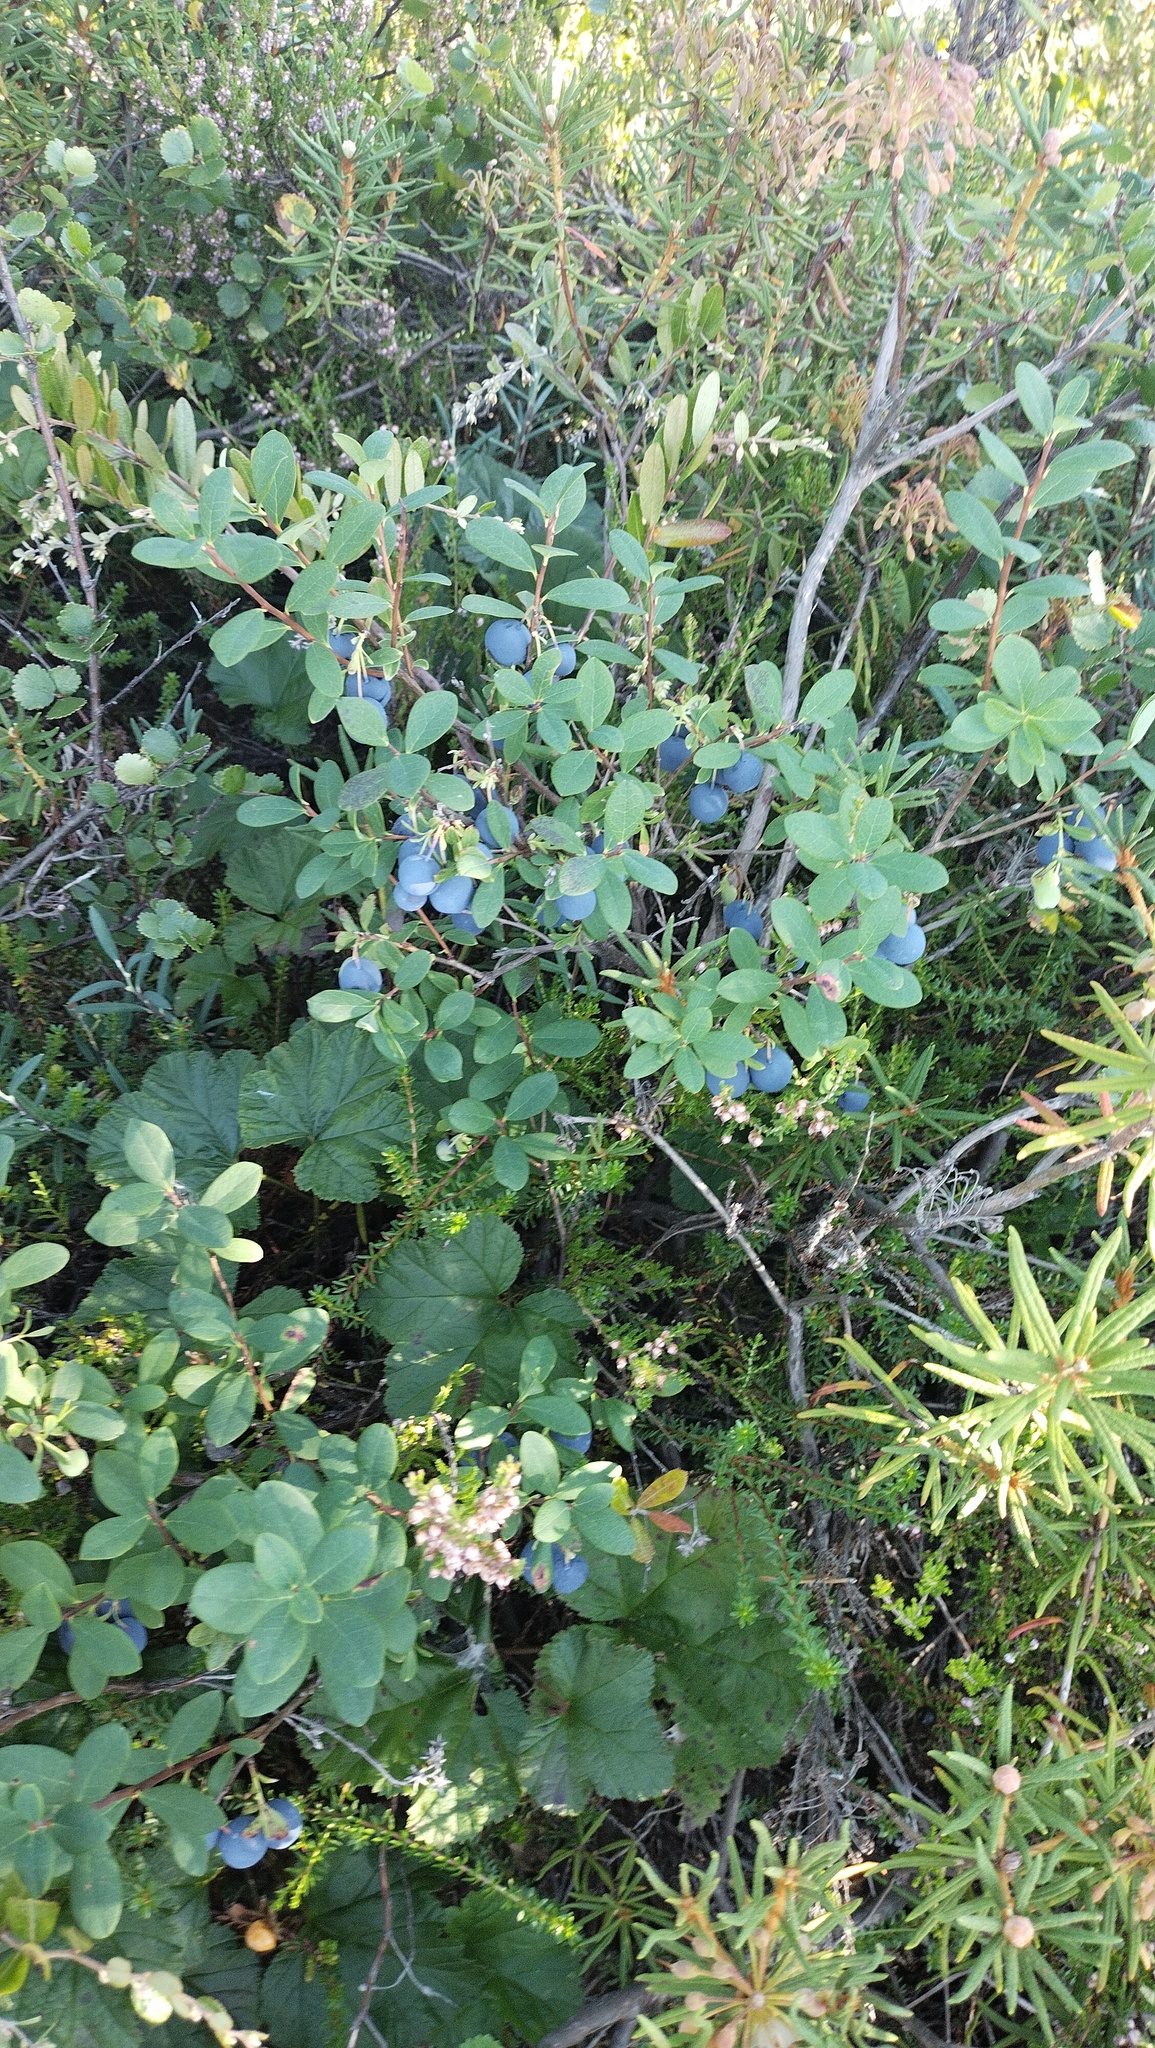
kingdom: Plantae
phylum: Tracheophyta
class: Magnoliopsida
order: Ericales
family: Ericaceae
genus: Vaccinium
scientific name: Vaccinium uliginosum
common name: Bog bilberry
